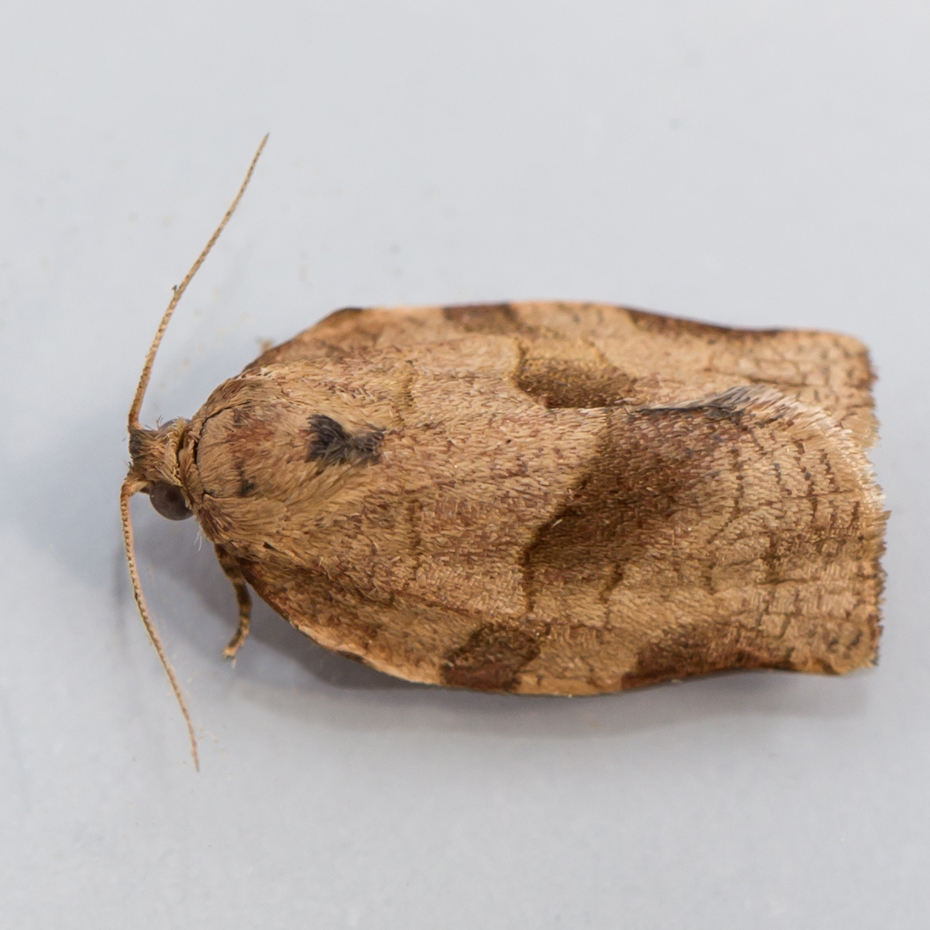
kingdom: Animalia
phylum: Arthropoda
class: Insecta
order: Lepidoptera
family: Tortricidae
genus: Choristoneura
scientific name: Choristoneura rosaceana
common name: Oblique-banded leafroller moth
